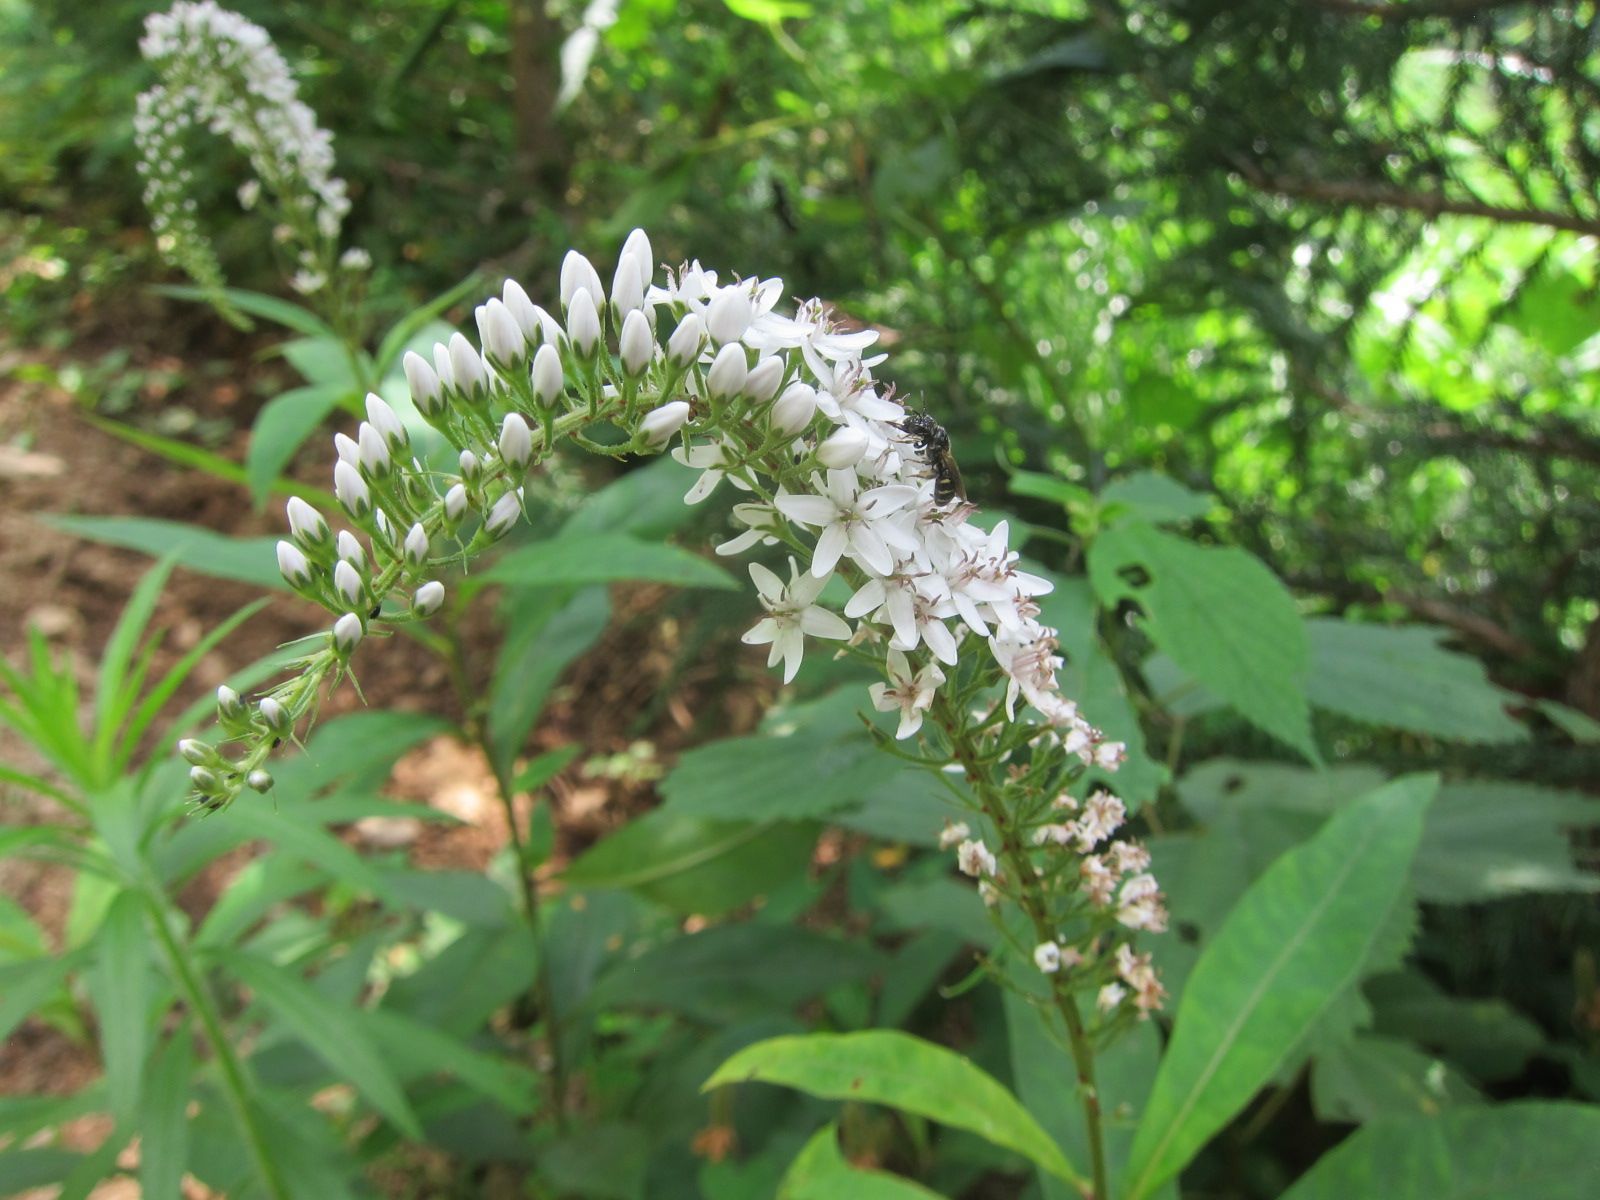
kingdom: Plantae
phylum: Tracheophyta
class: Magnoliopsida
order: Ericales
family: Primulaceae
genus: Lysimachia
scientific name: Lysimachia clethroides
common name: Gooseneck loosestrife
